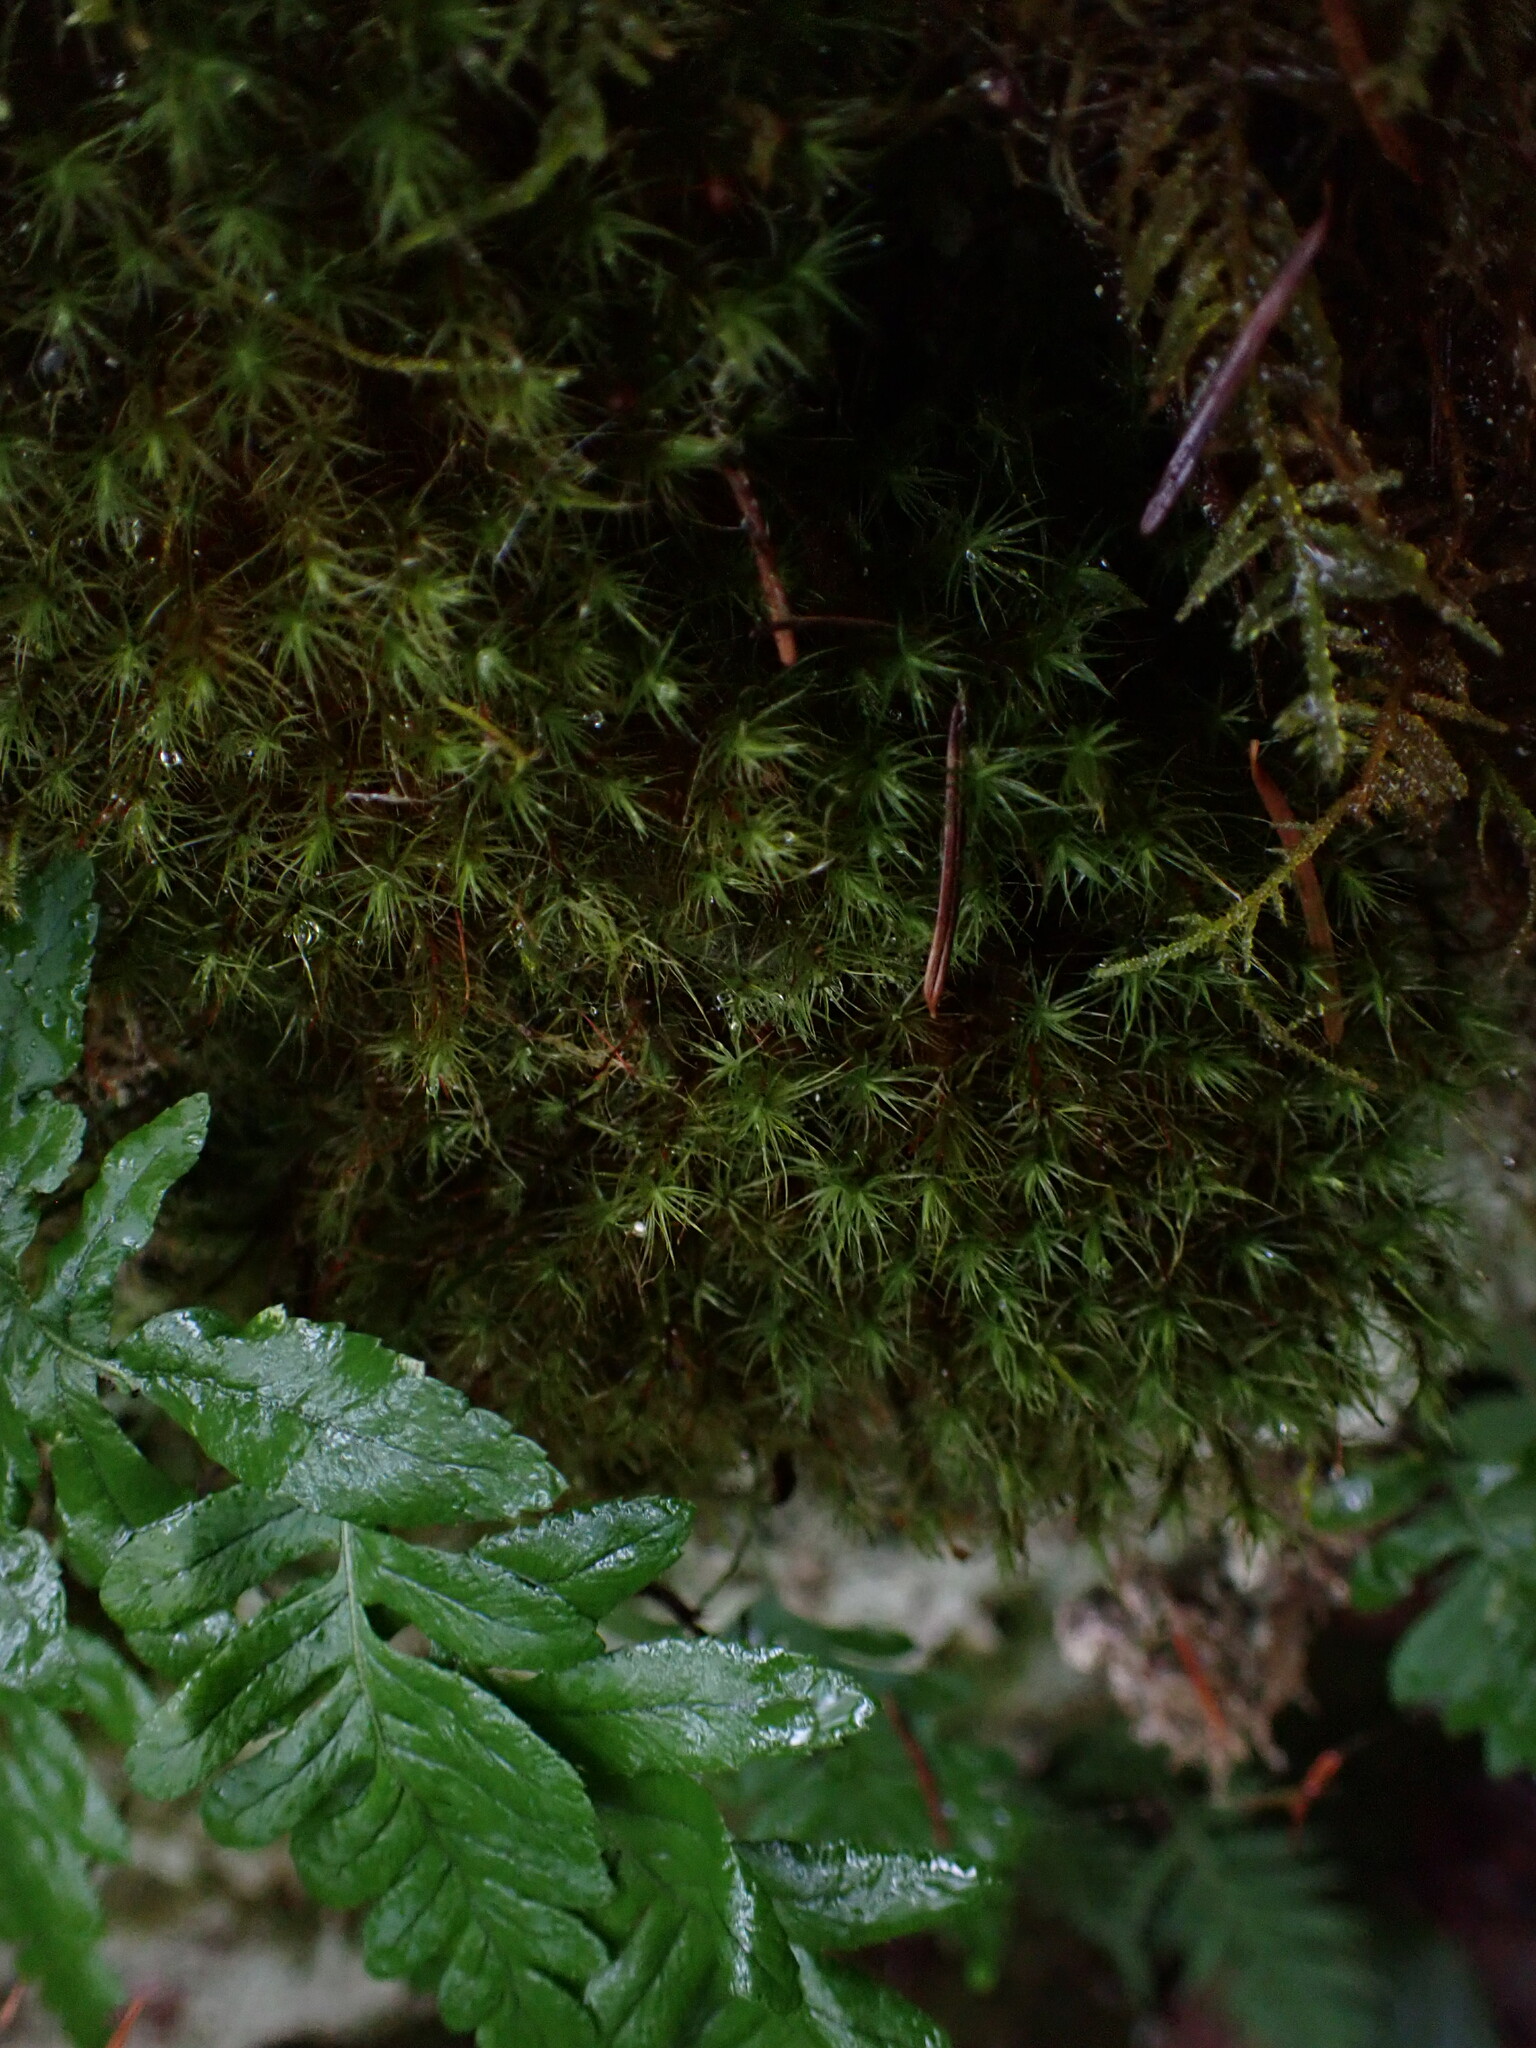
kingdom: Plantae
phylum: Bryophyta
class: Bryopsida
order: Bartramiales
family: Bartramiaceae
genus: Bartramia
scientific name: Bartramia ithyphylla
